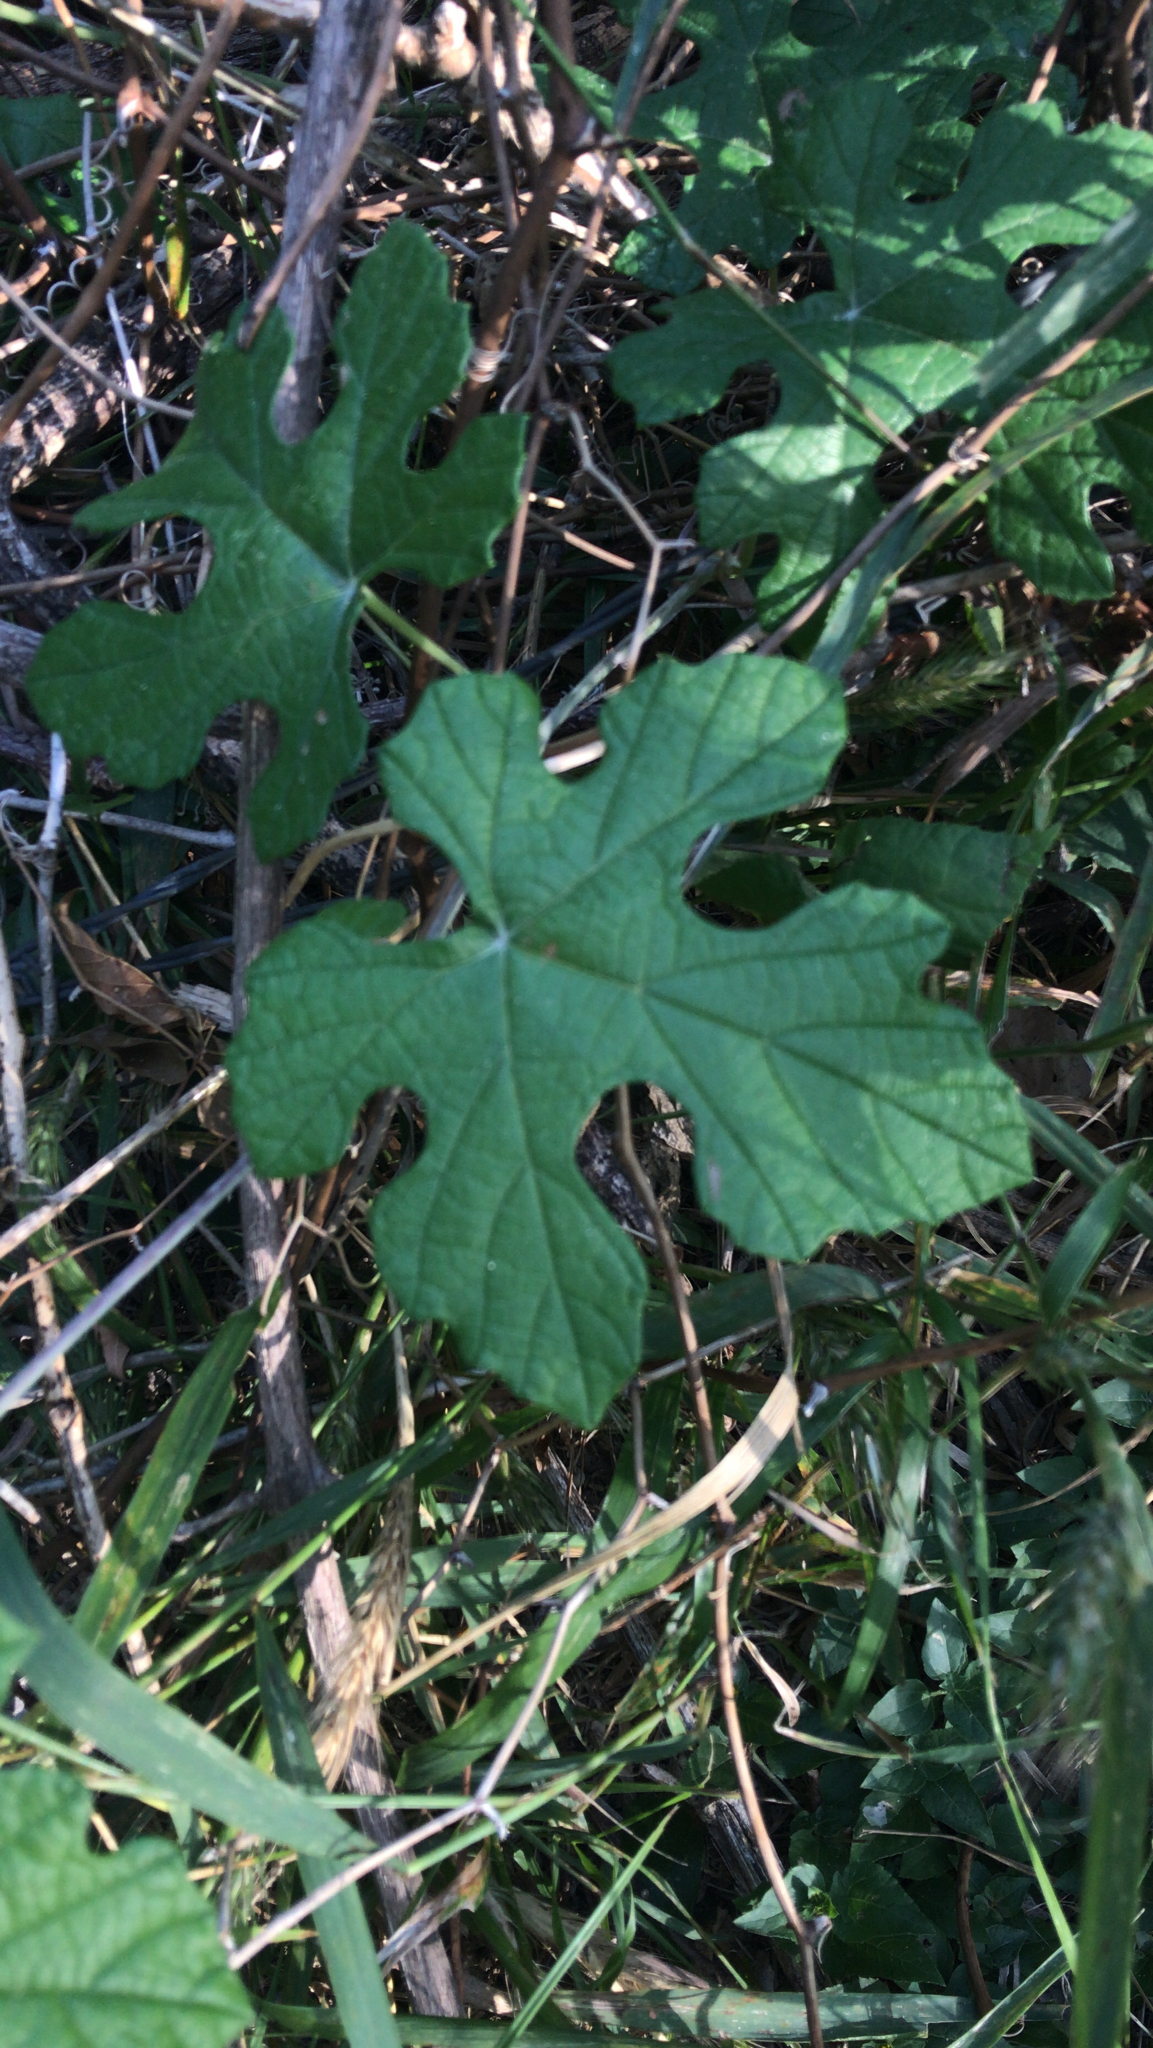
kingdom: Plantae
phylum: Tracheophyta
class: Magnoliopsida
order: Vitales
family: Vitaceae
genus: Vitis
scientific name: Vitis mustangensis
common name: Mustang grape
